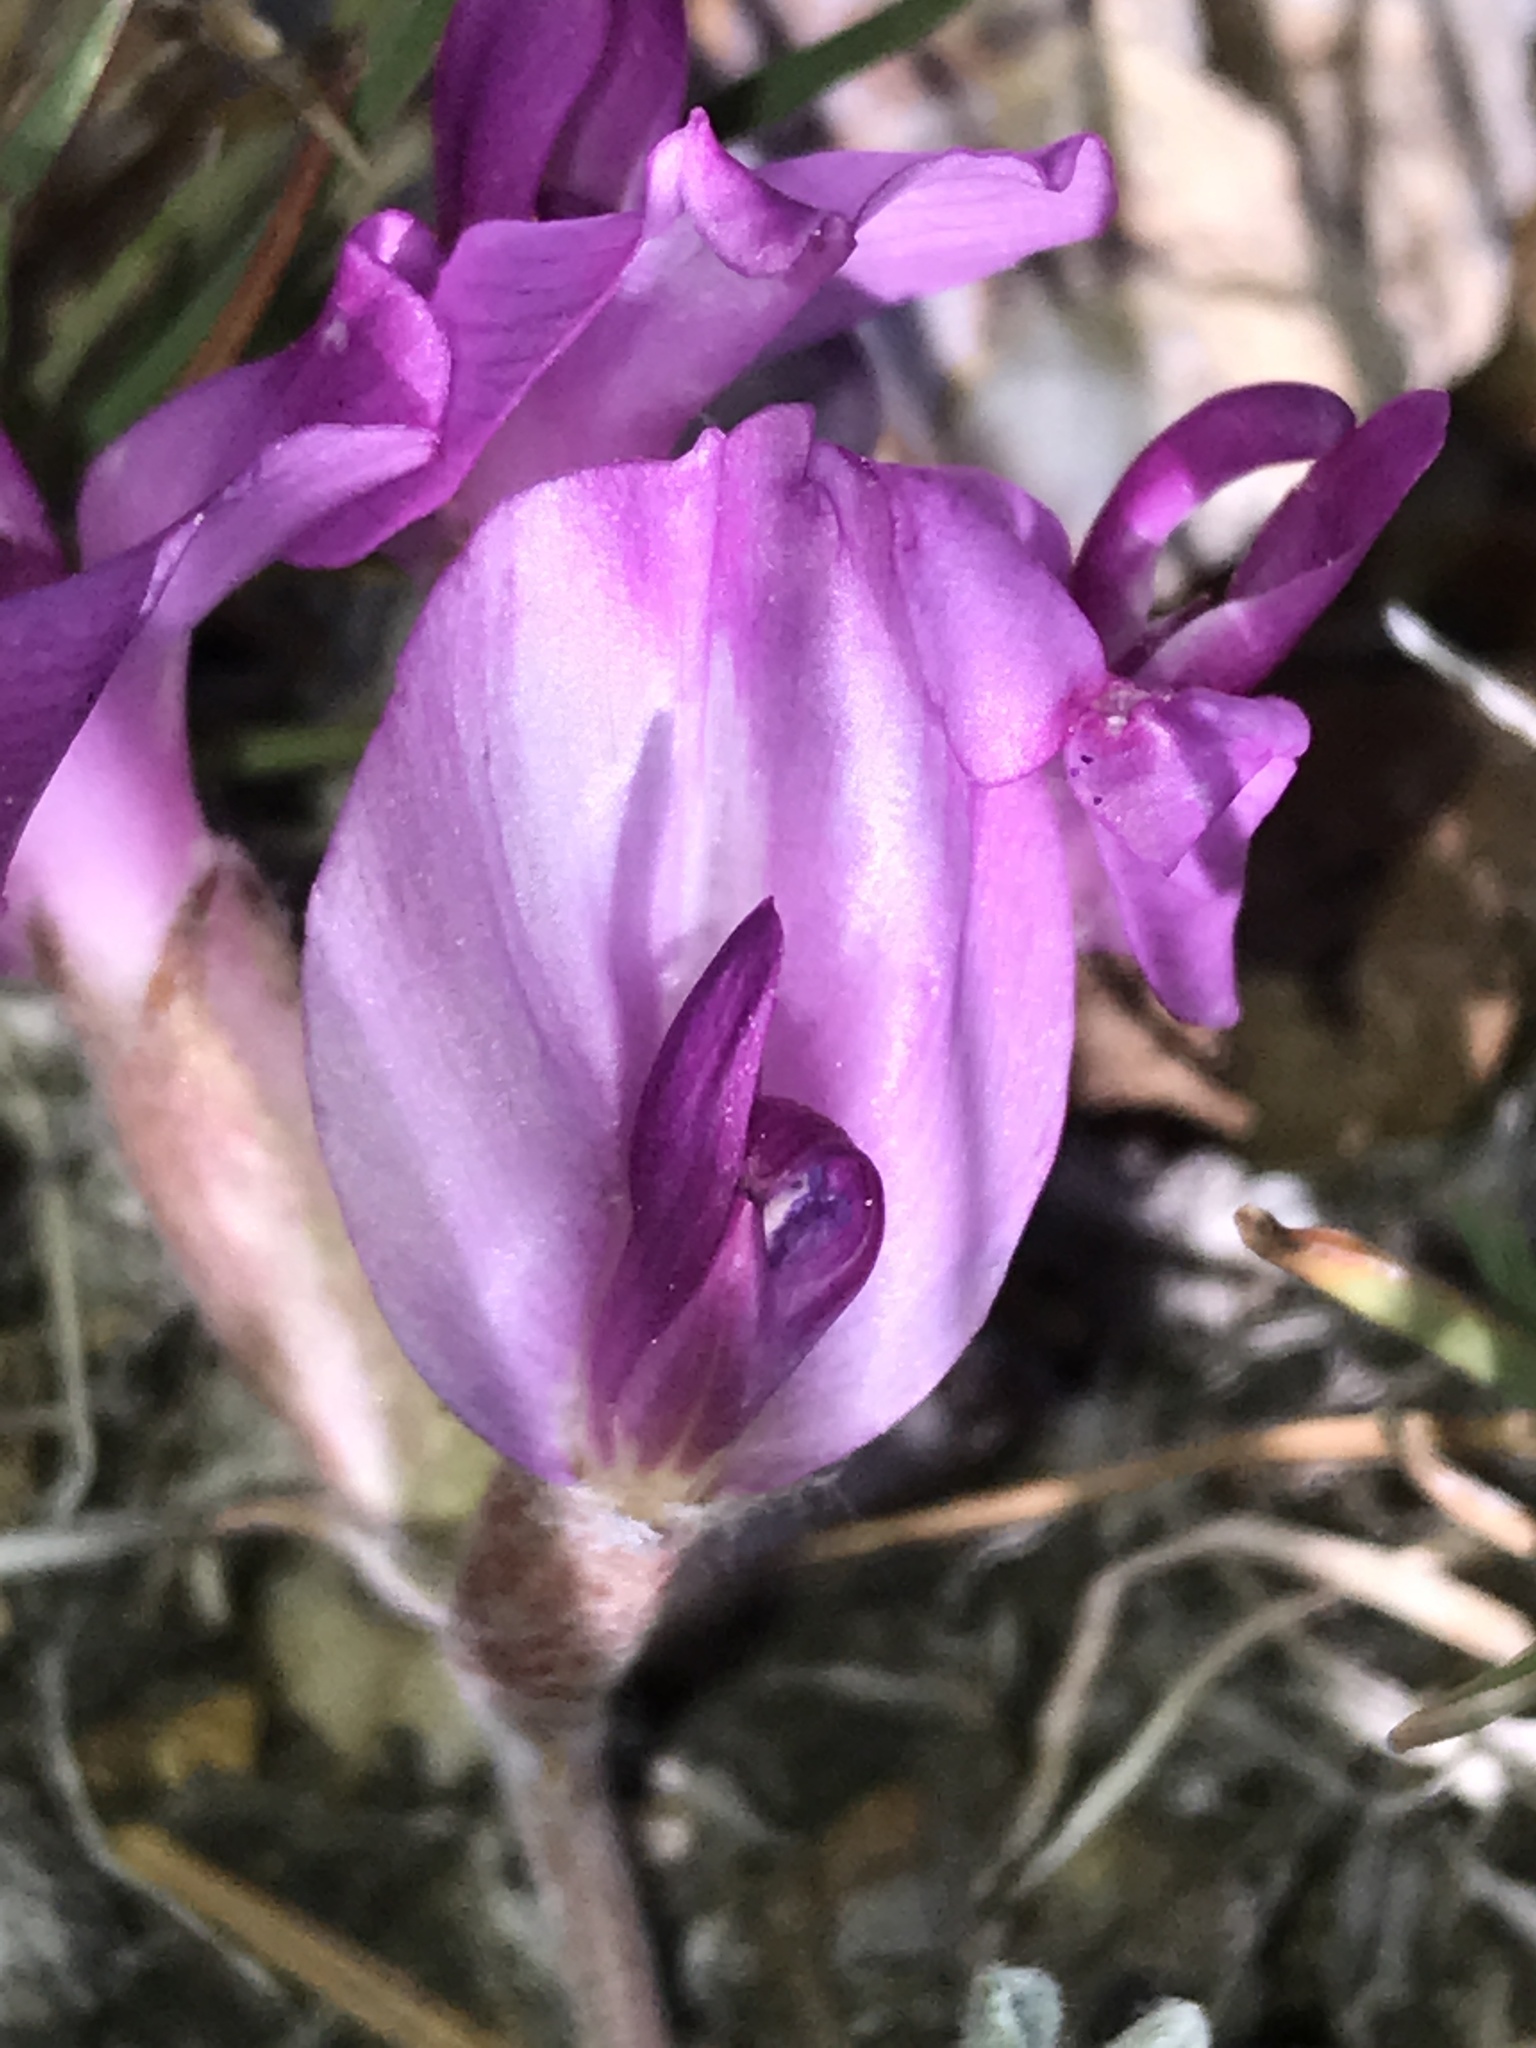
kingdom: Plantae
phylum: Tracheophyta
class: Magnoliopsida
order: Fabales
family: Fabaceae
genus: Astragalus
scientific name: Astragalus utahensis
